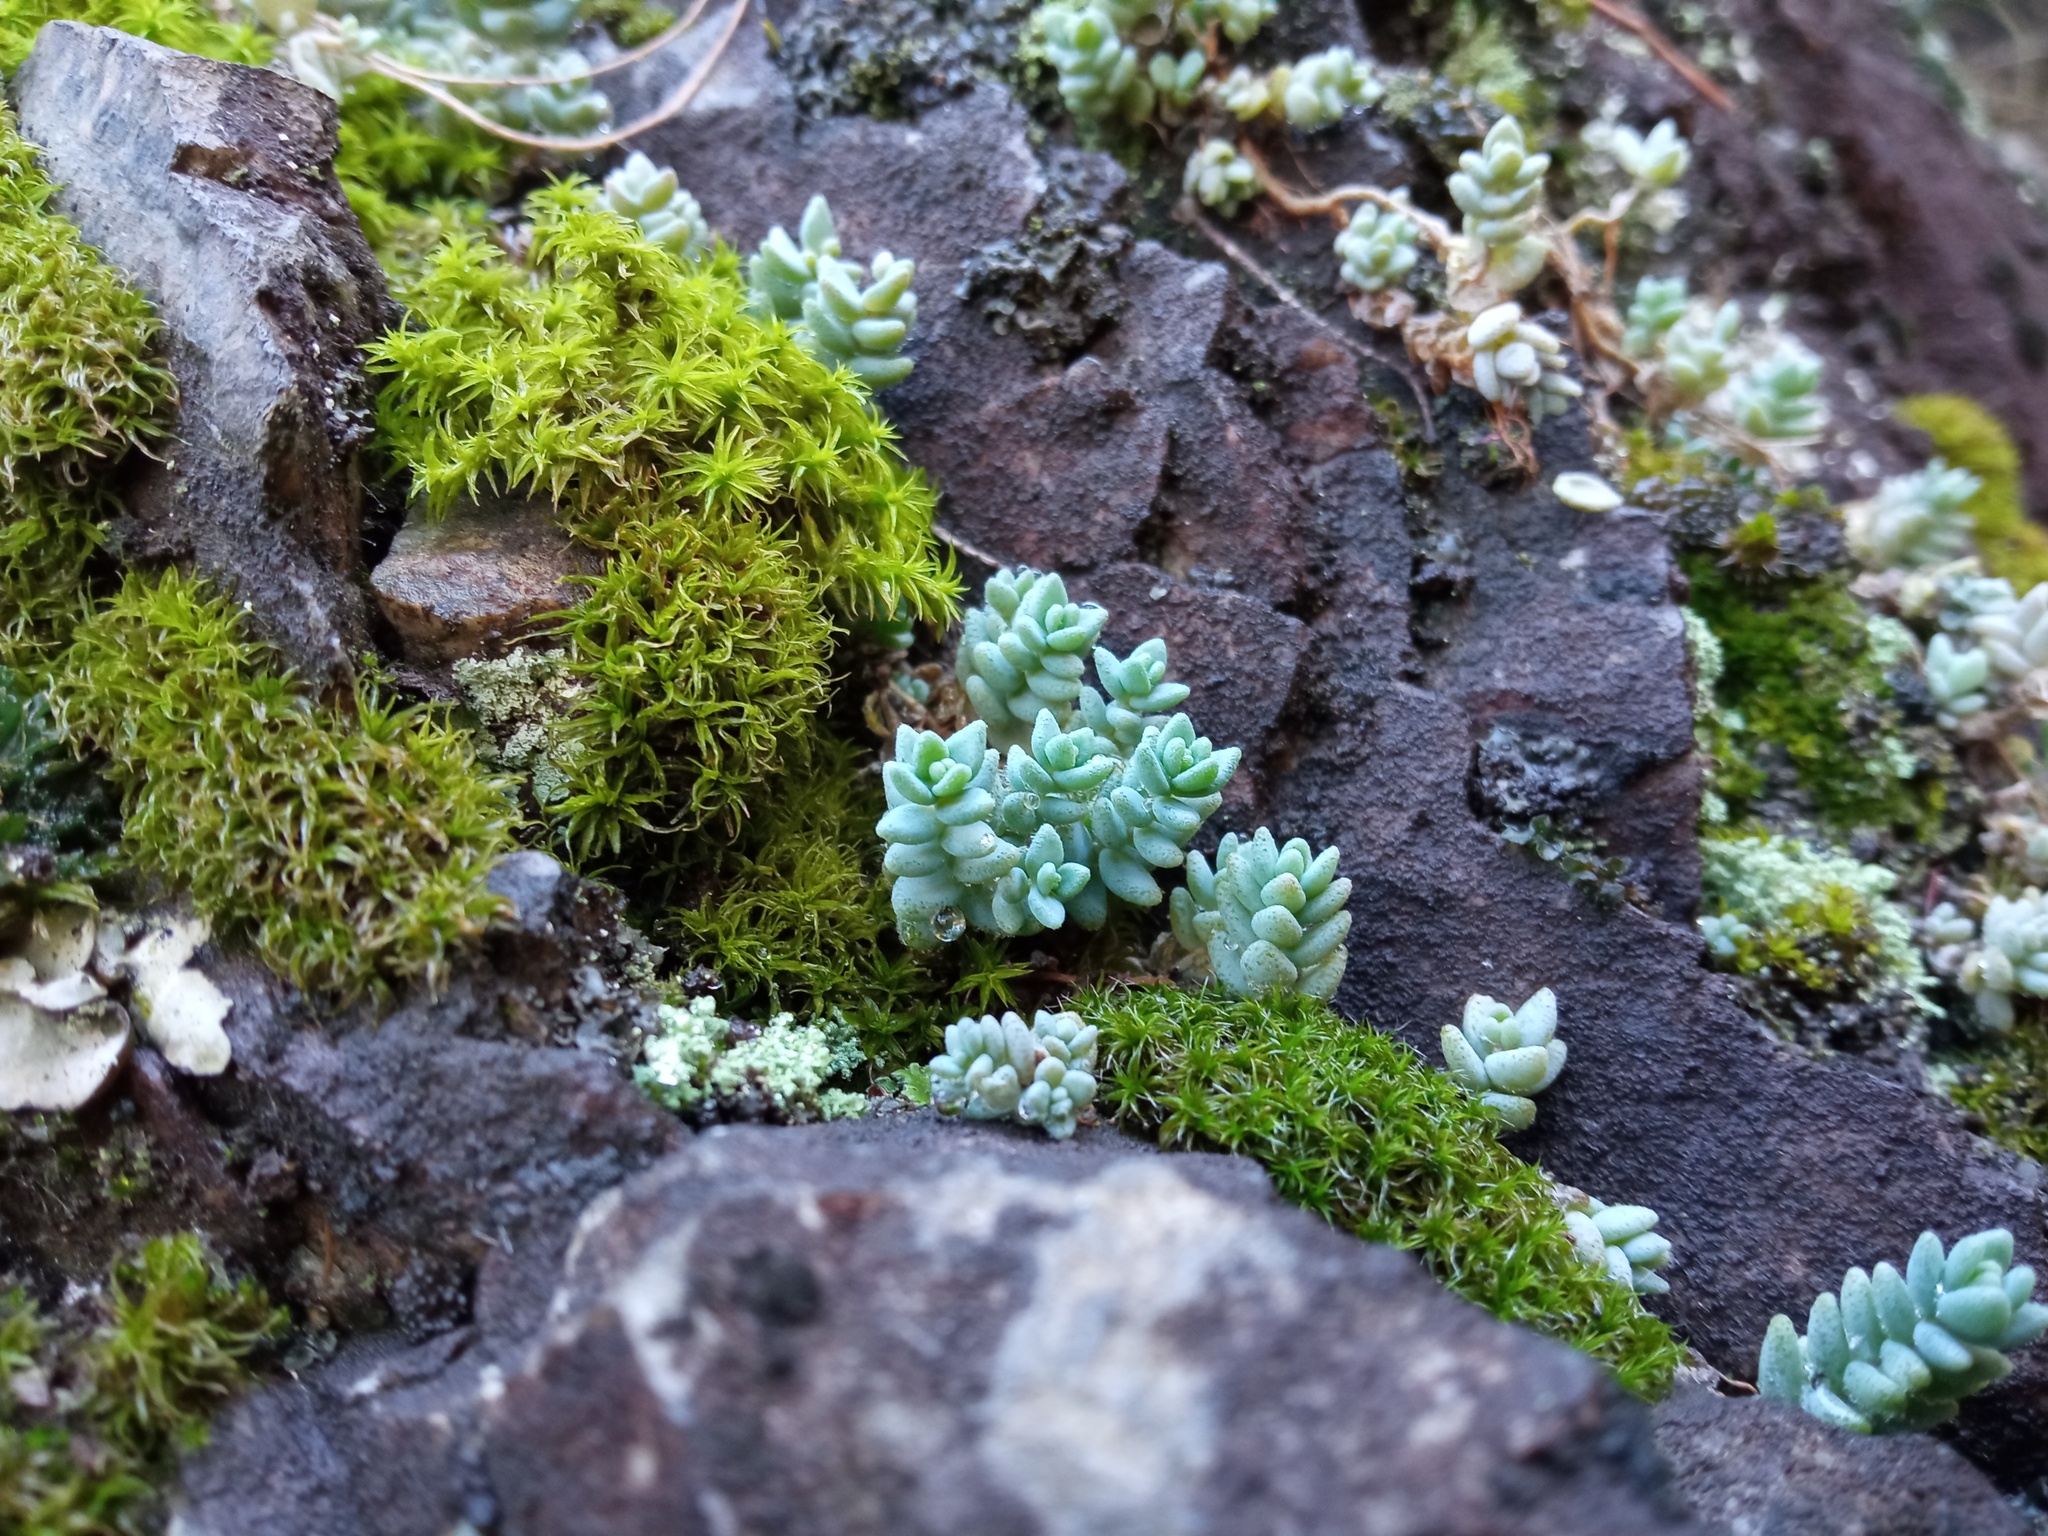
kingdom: Plantae
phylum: Tracheophyta
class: Magnoliopsida
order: Saxifragales
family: Crassulaceae
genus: Sedum
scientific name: Sedum dasyphyllum
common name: Thick-leaf stonecrop
